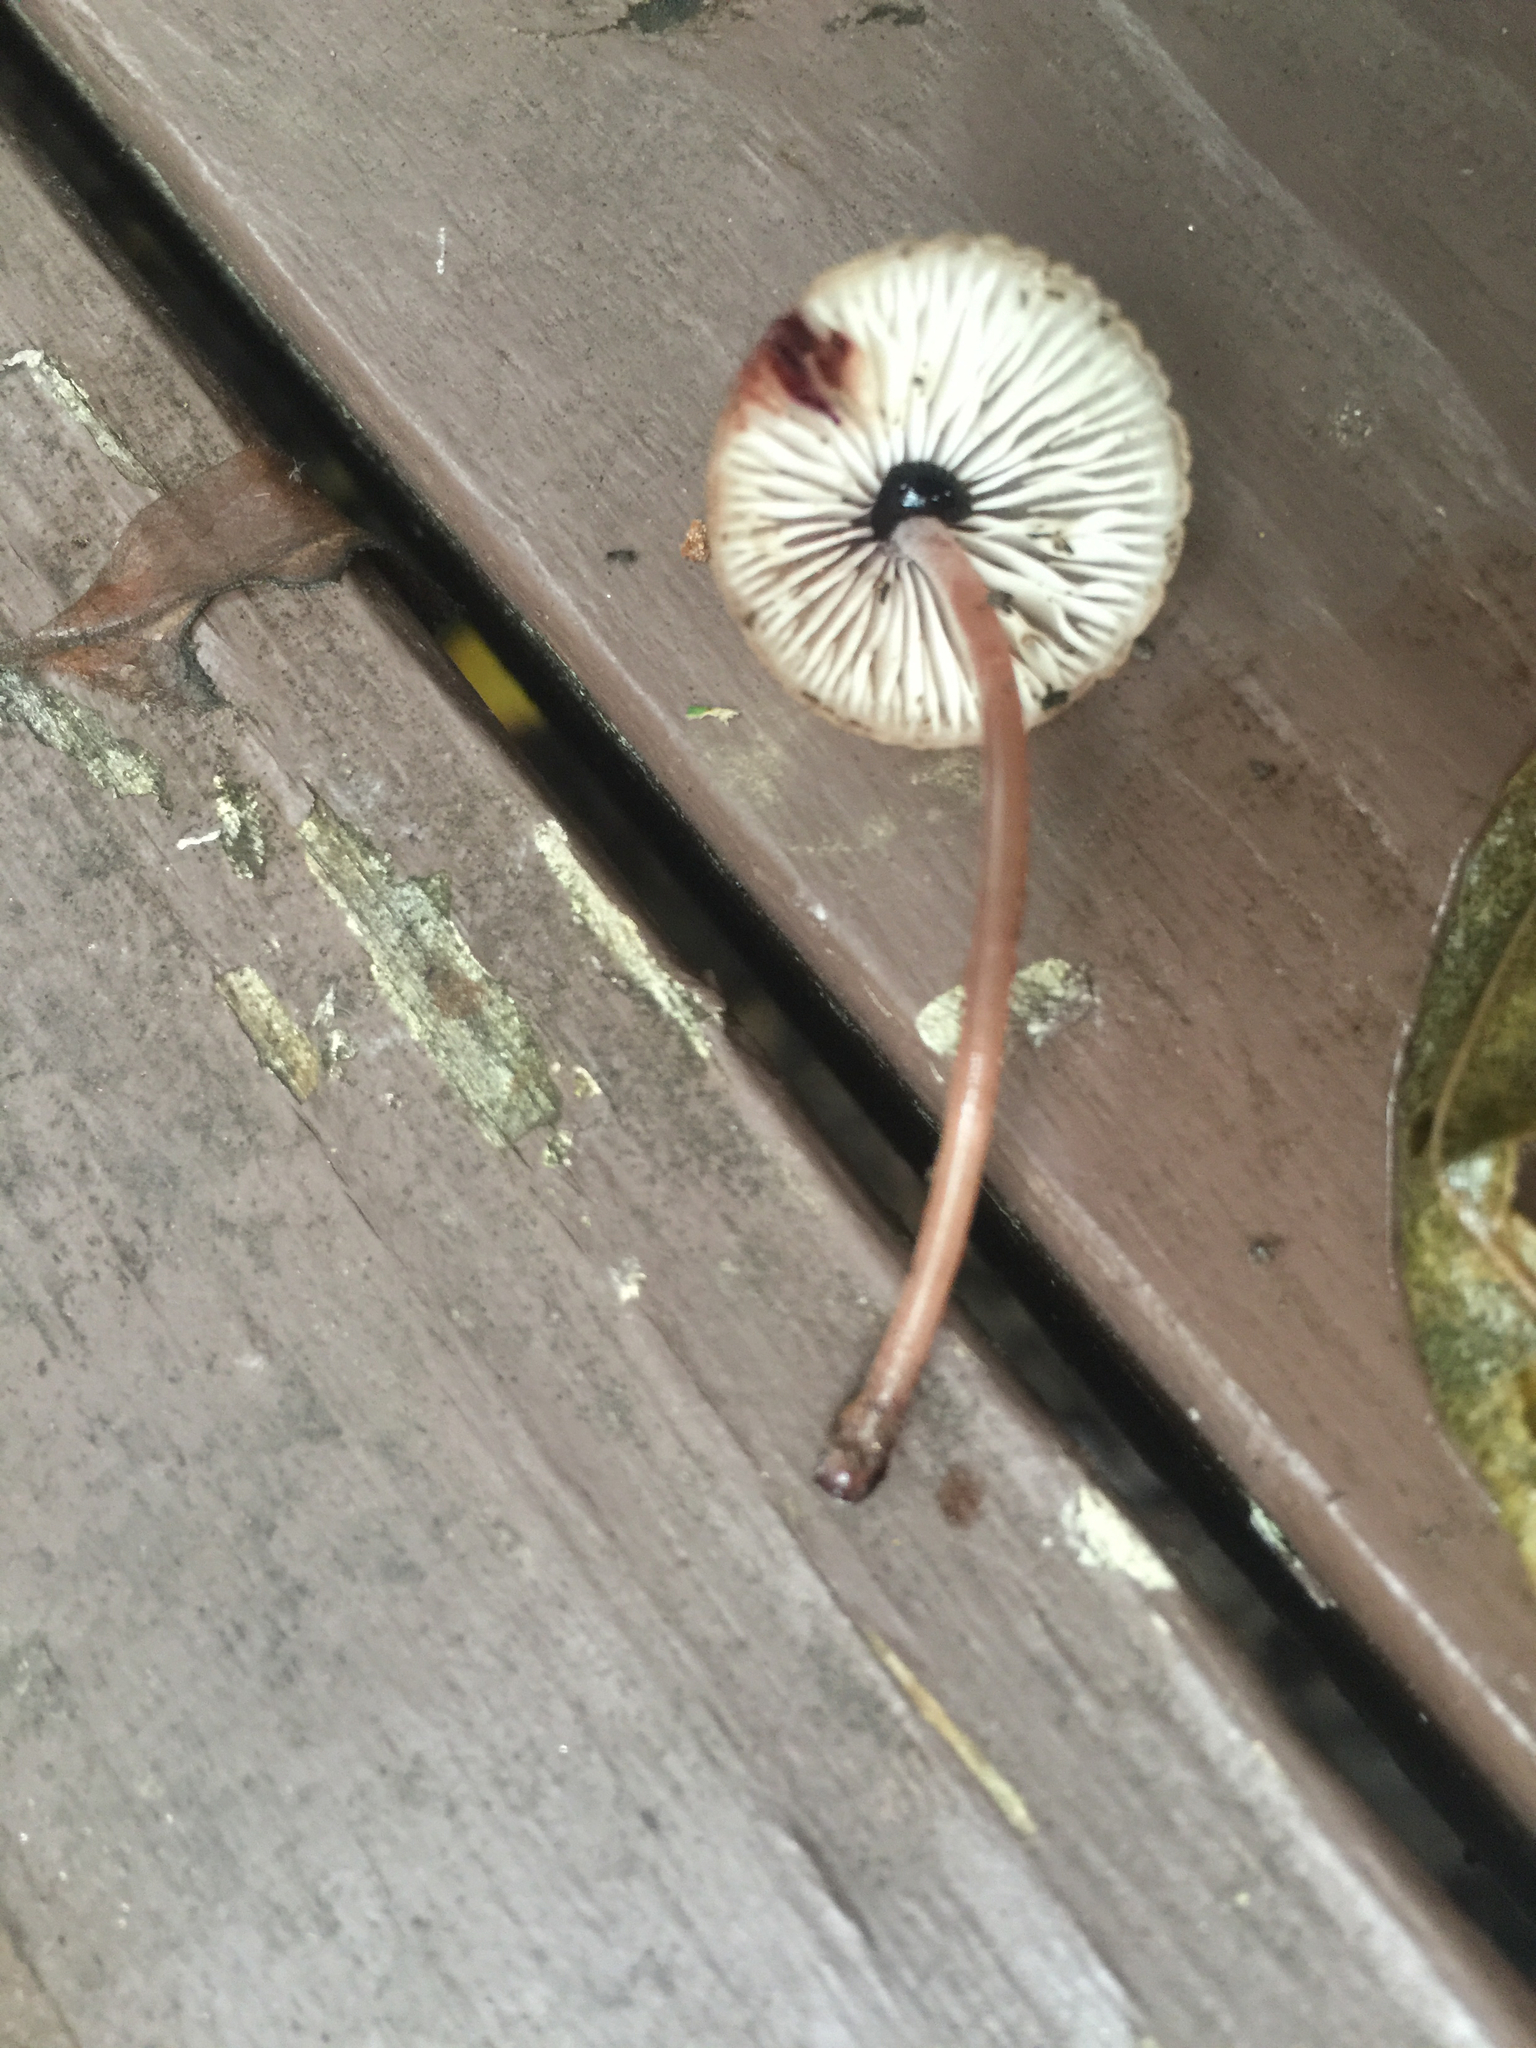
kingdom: Fungi
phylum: Basidiomycota
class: Agaricomycetes
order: Agaricales
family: Mycenaceae
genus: Mycena
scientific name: Mycena haematopus
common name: Burgundydrop bonnet
